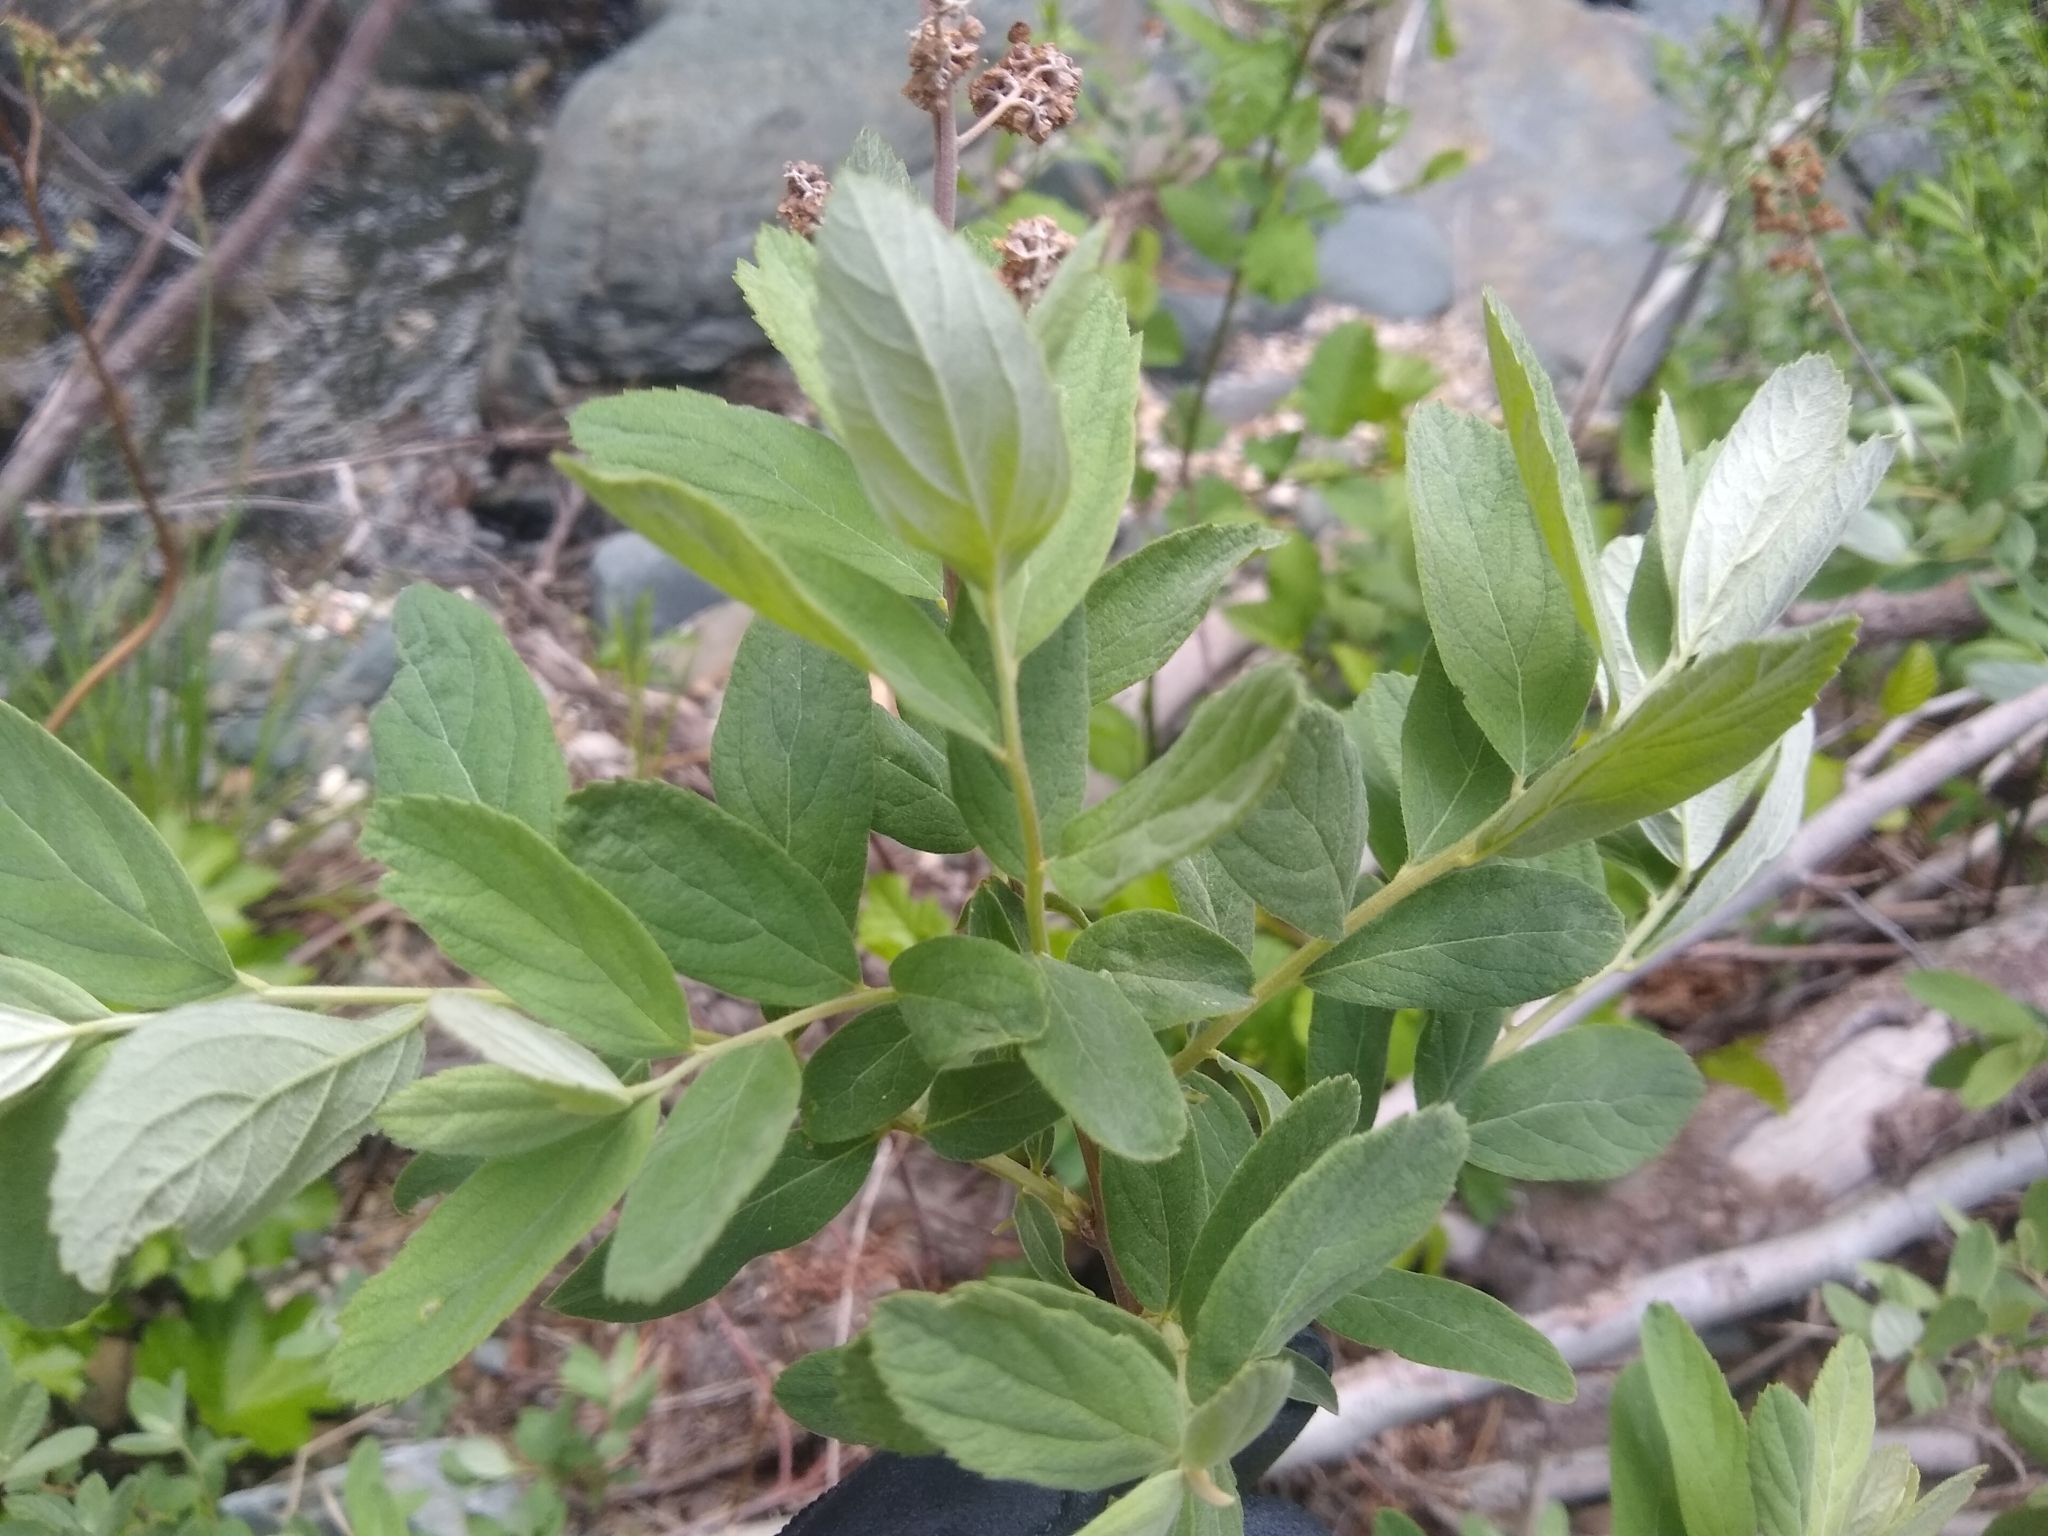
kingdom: Plantae
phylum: Tracheophyta
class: Magnoliopsida
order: Rosales
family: Rosaceae
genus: Spiraea
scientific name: Spiraea douglasii
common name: Steeplebush
